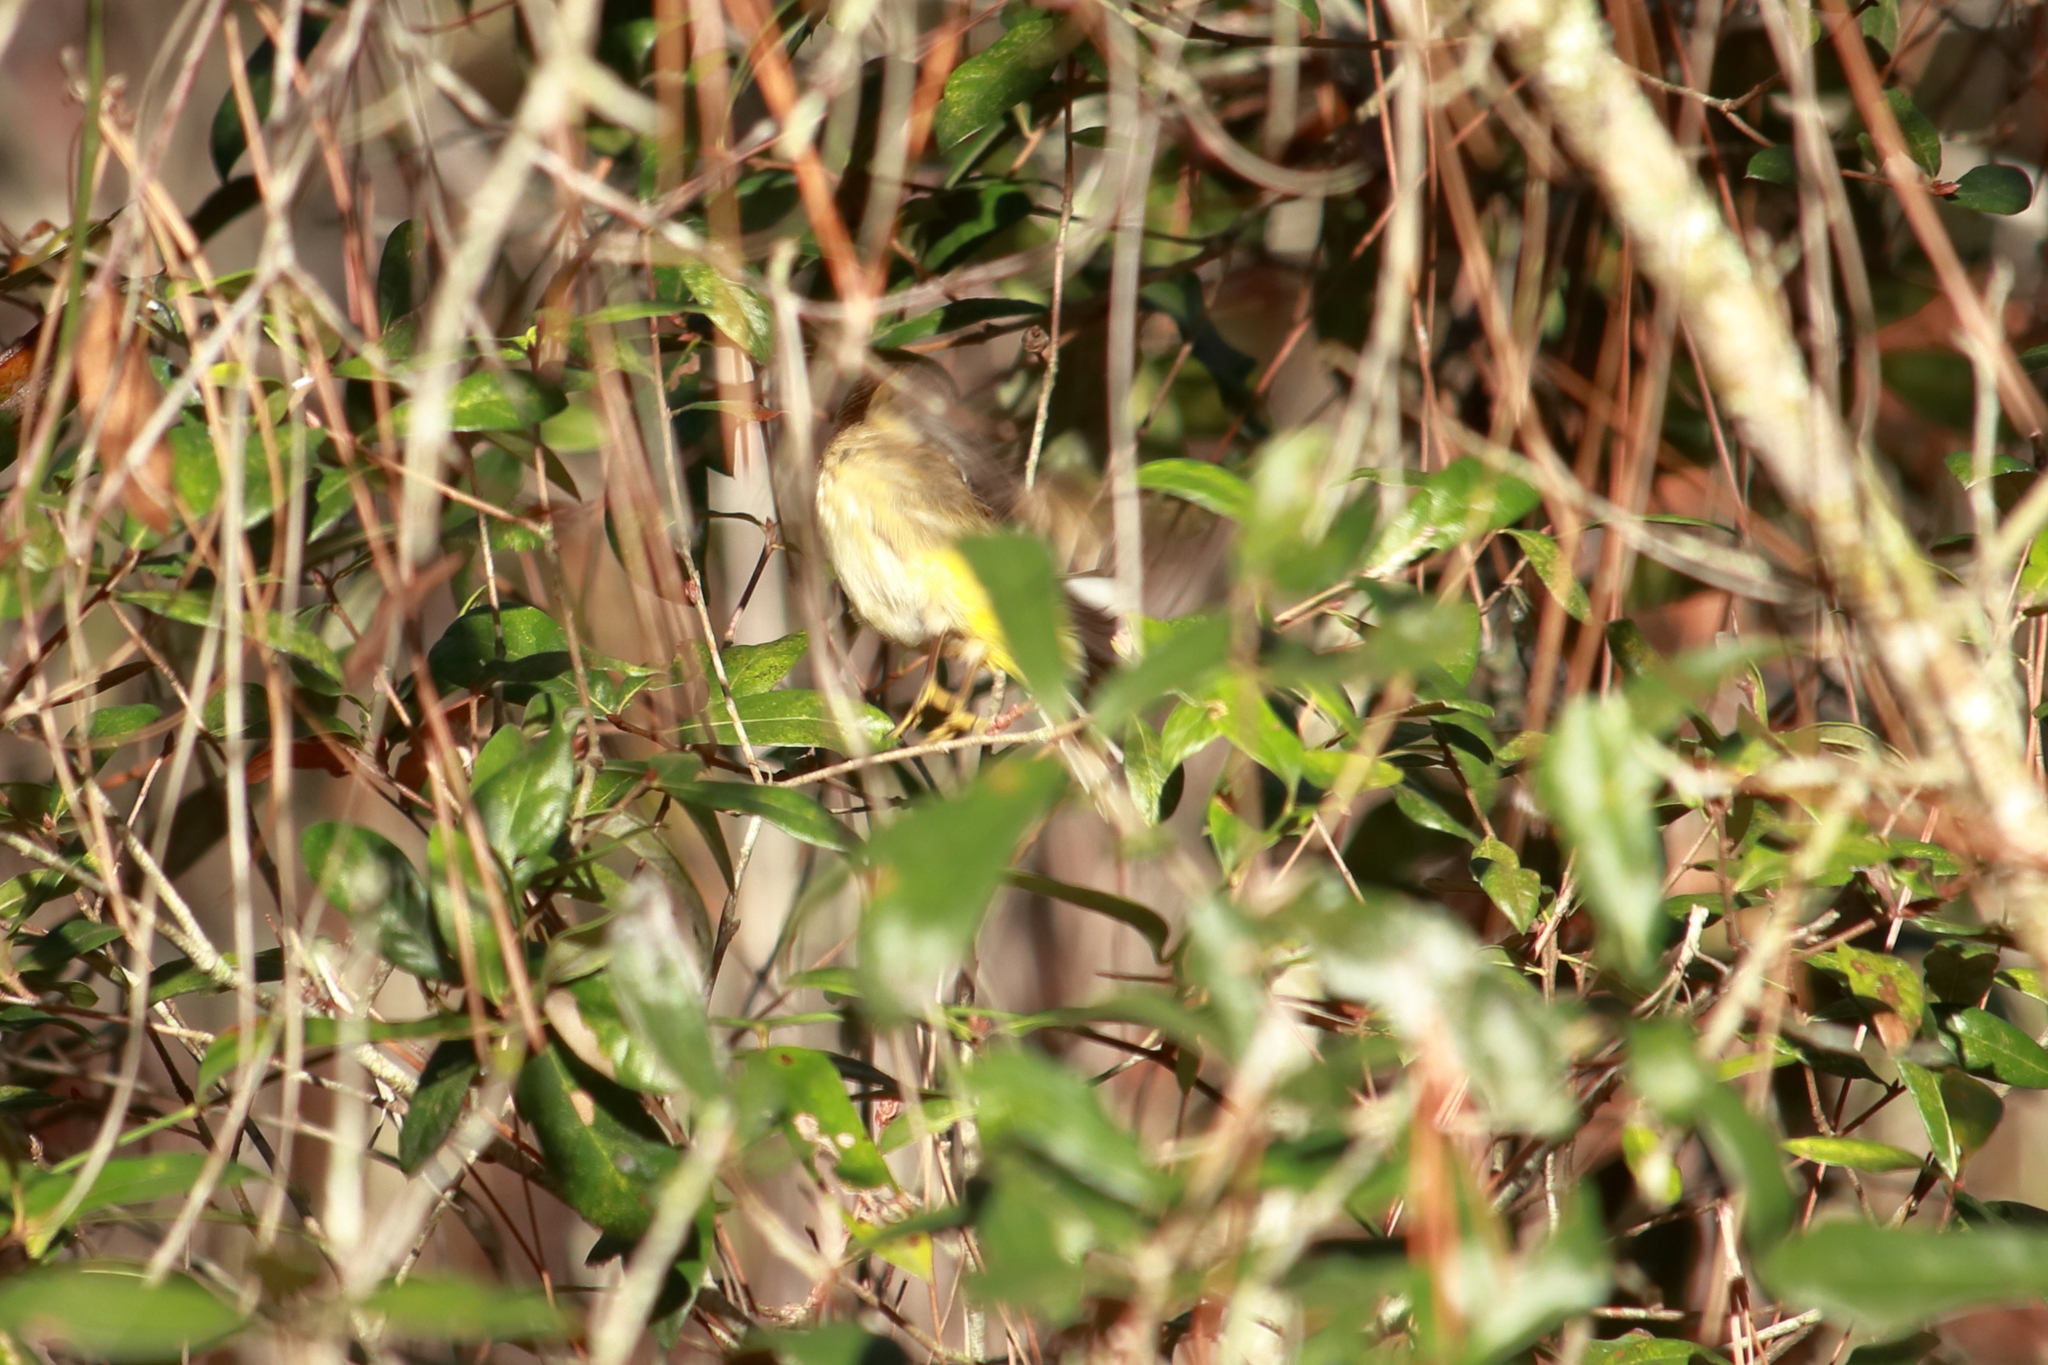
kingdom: Animalia
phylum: Chordata
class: Aves
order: Passeriformes
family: Parulidae
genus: Setophaga
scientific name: Setophaga palmarum
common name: Palm warbler
